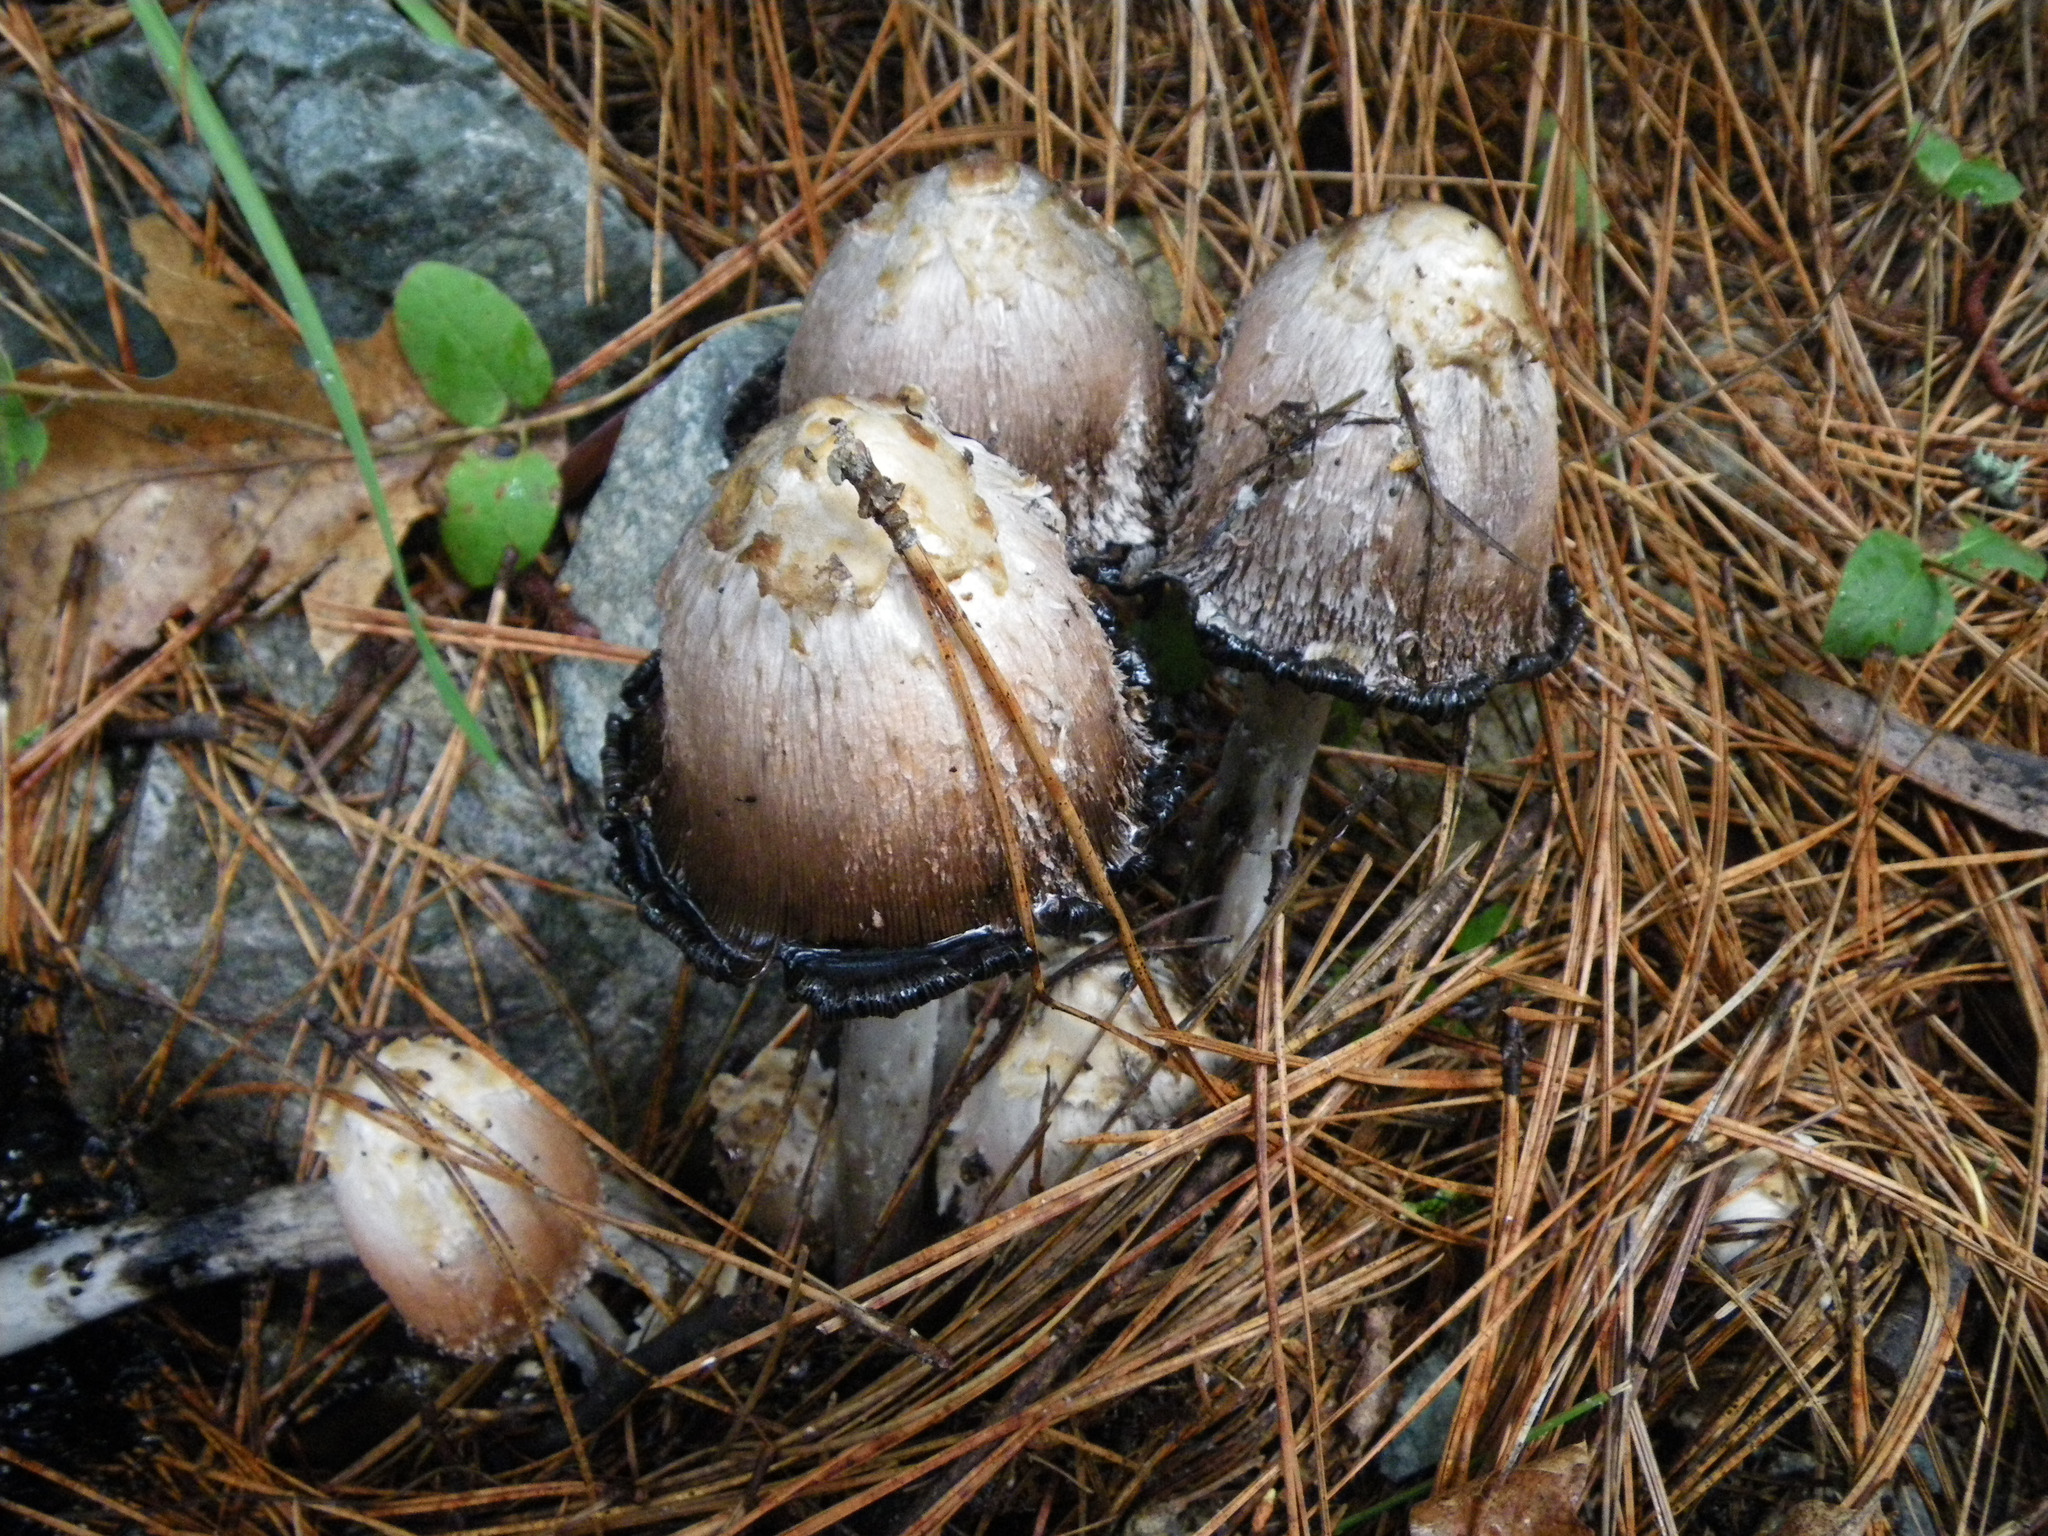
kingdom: Fungi
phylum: Basidiomycota
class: Agaricomycetes
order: Agaricales
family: Agaricaceae
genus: Coprinus
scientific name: Coprinus comatus
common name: Lawyer's wig
